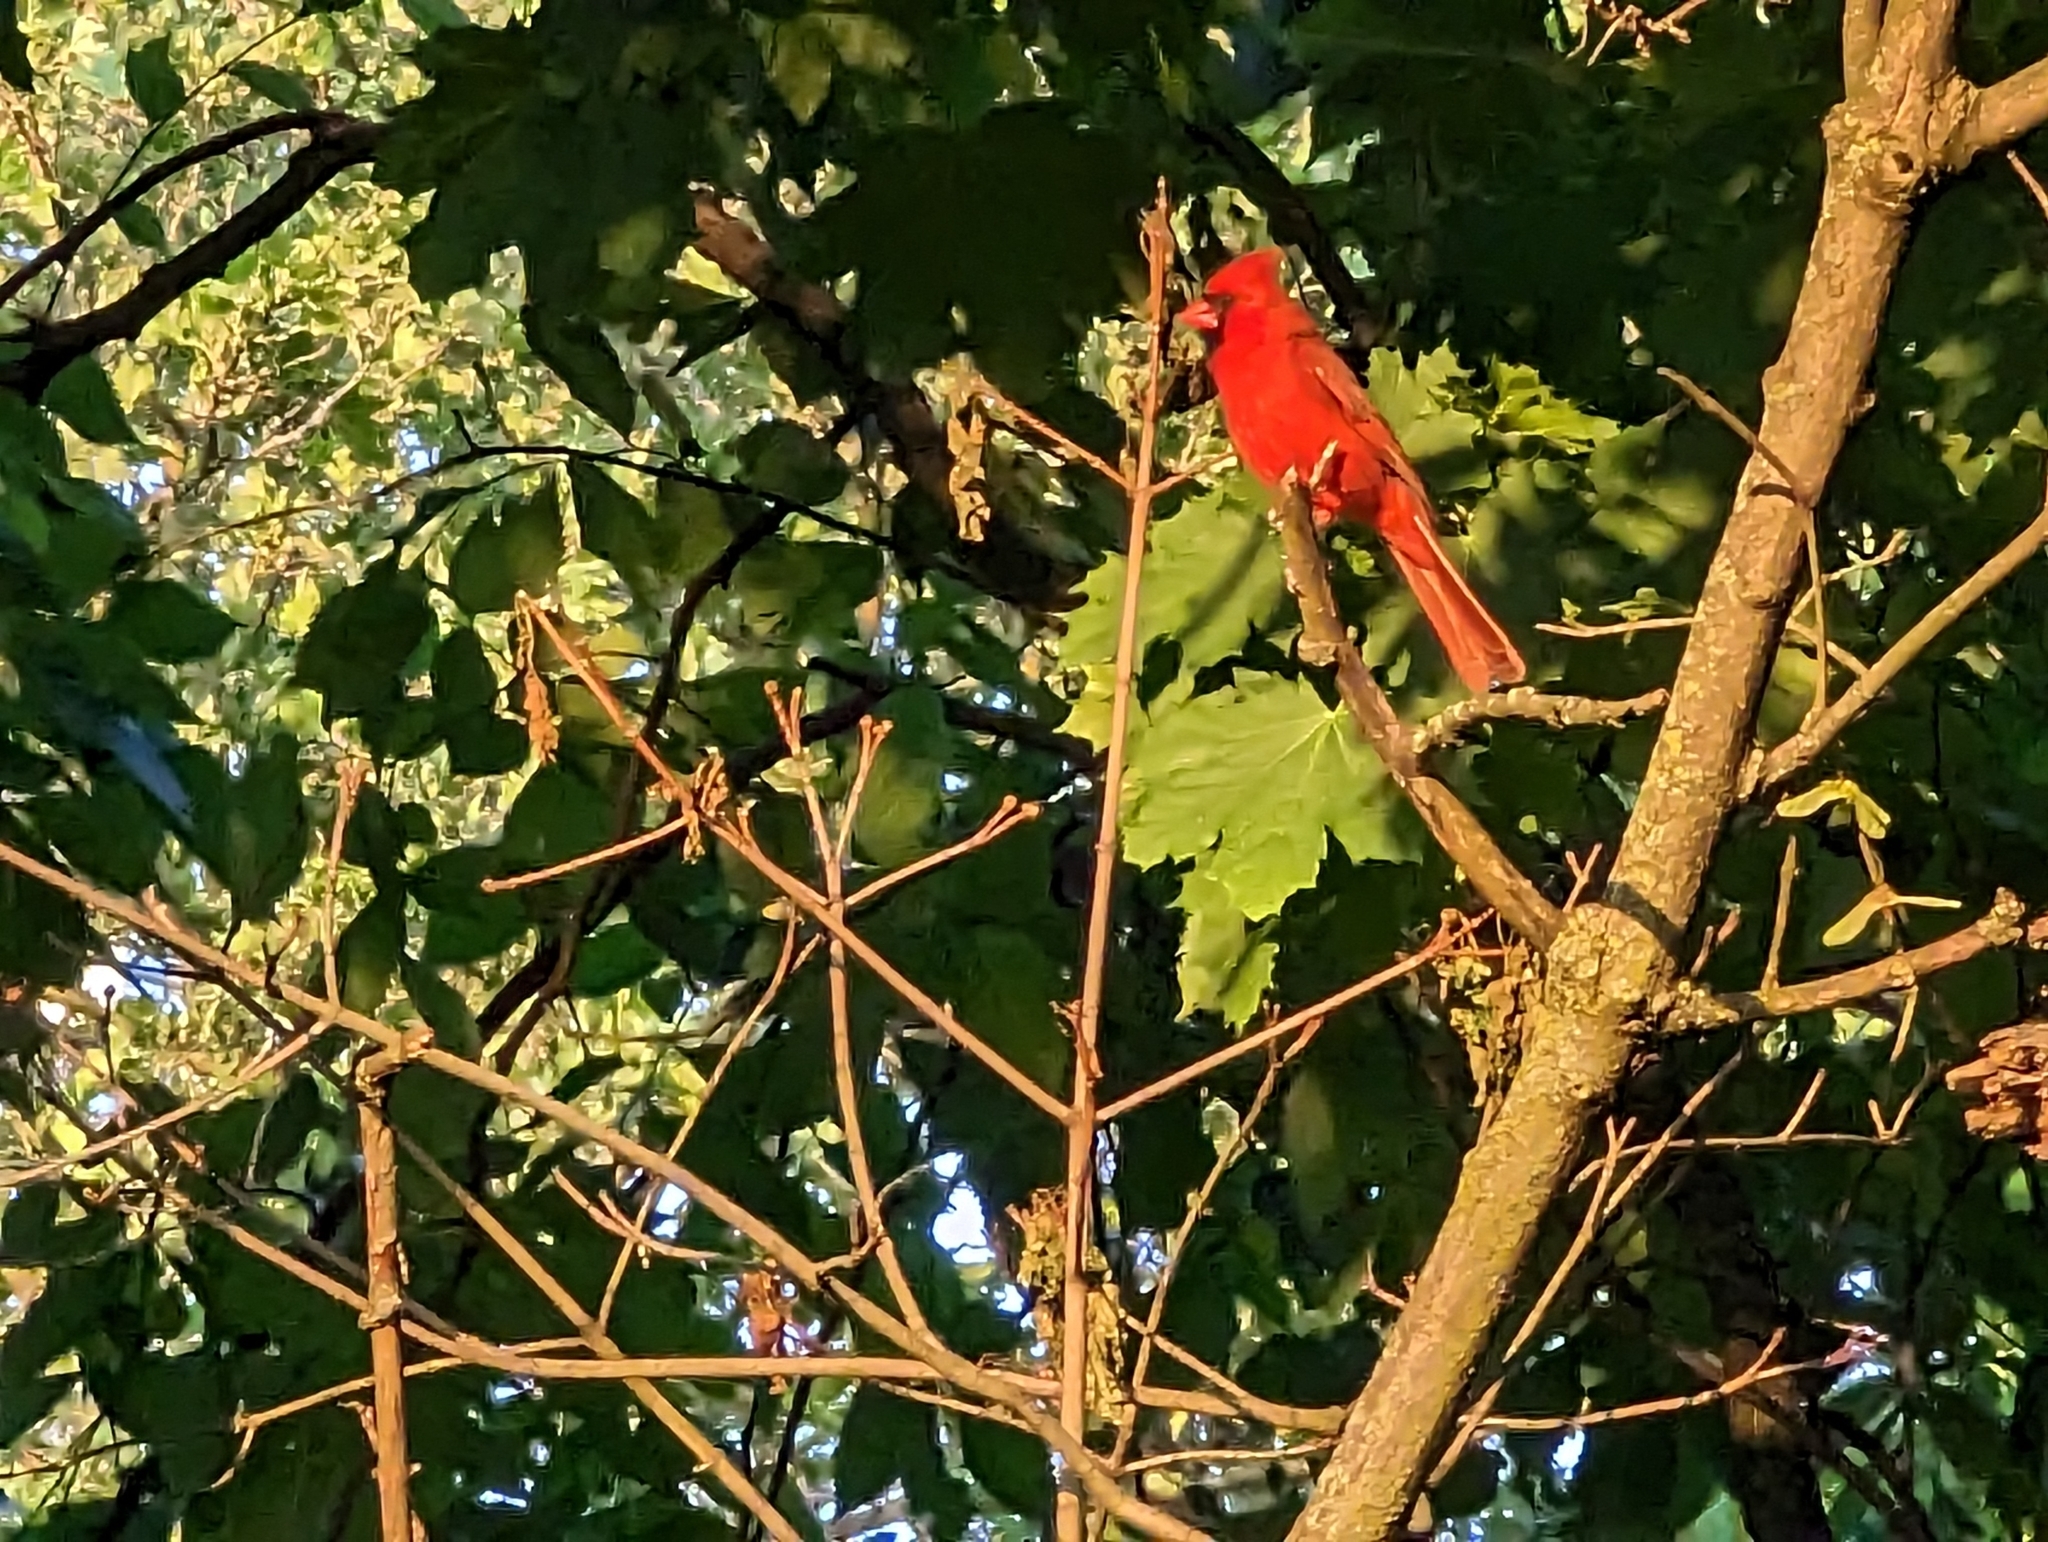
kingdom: Animalia
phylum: Chordata
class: Aves
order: Passeriformes
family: Cardinalidae
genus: Cardinalis
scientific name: Cardinalis cardinalis
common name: Northern cardinal
